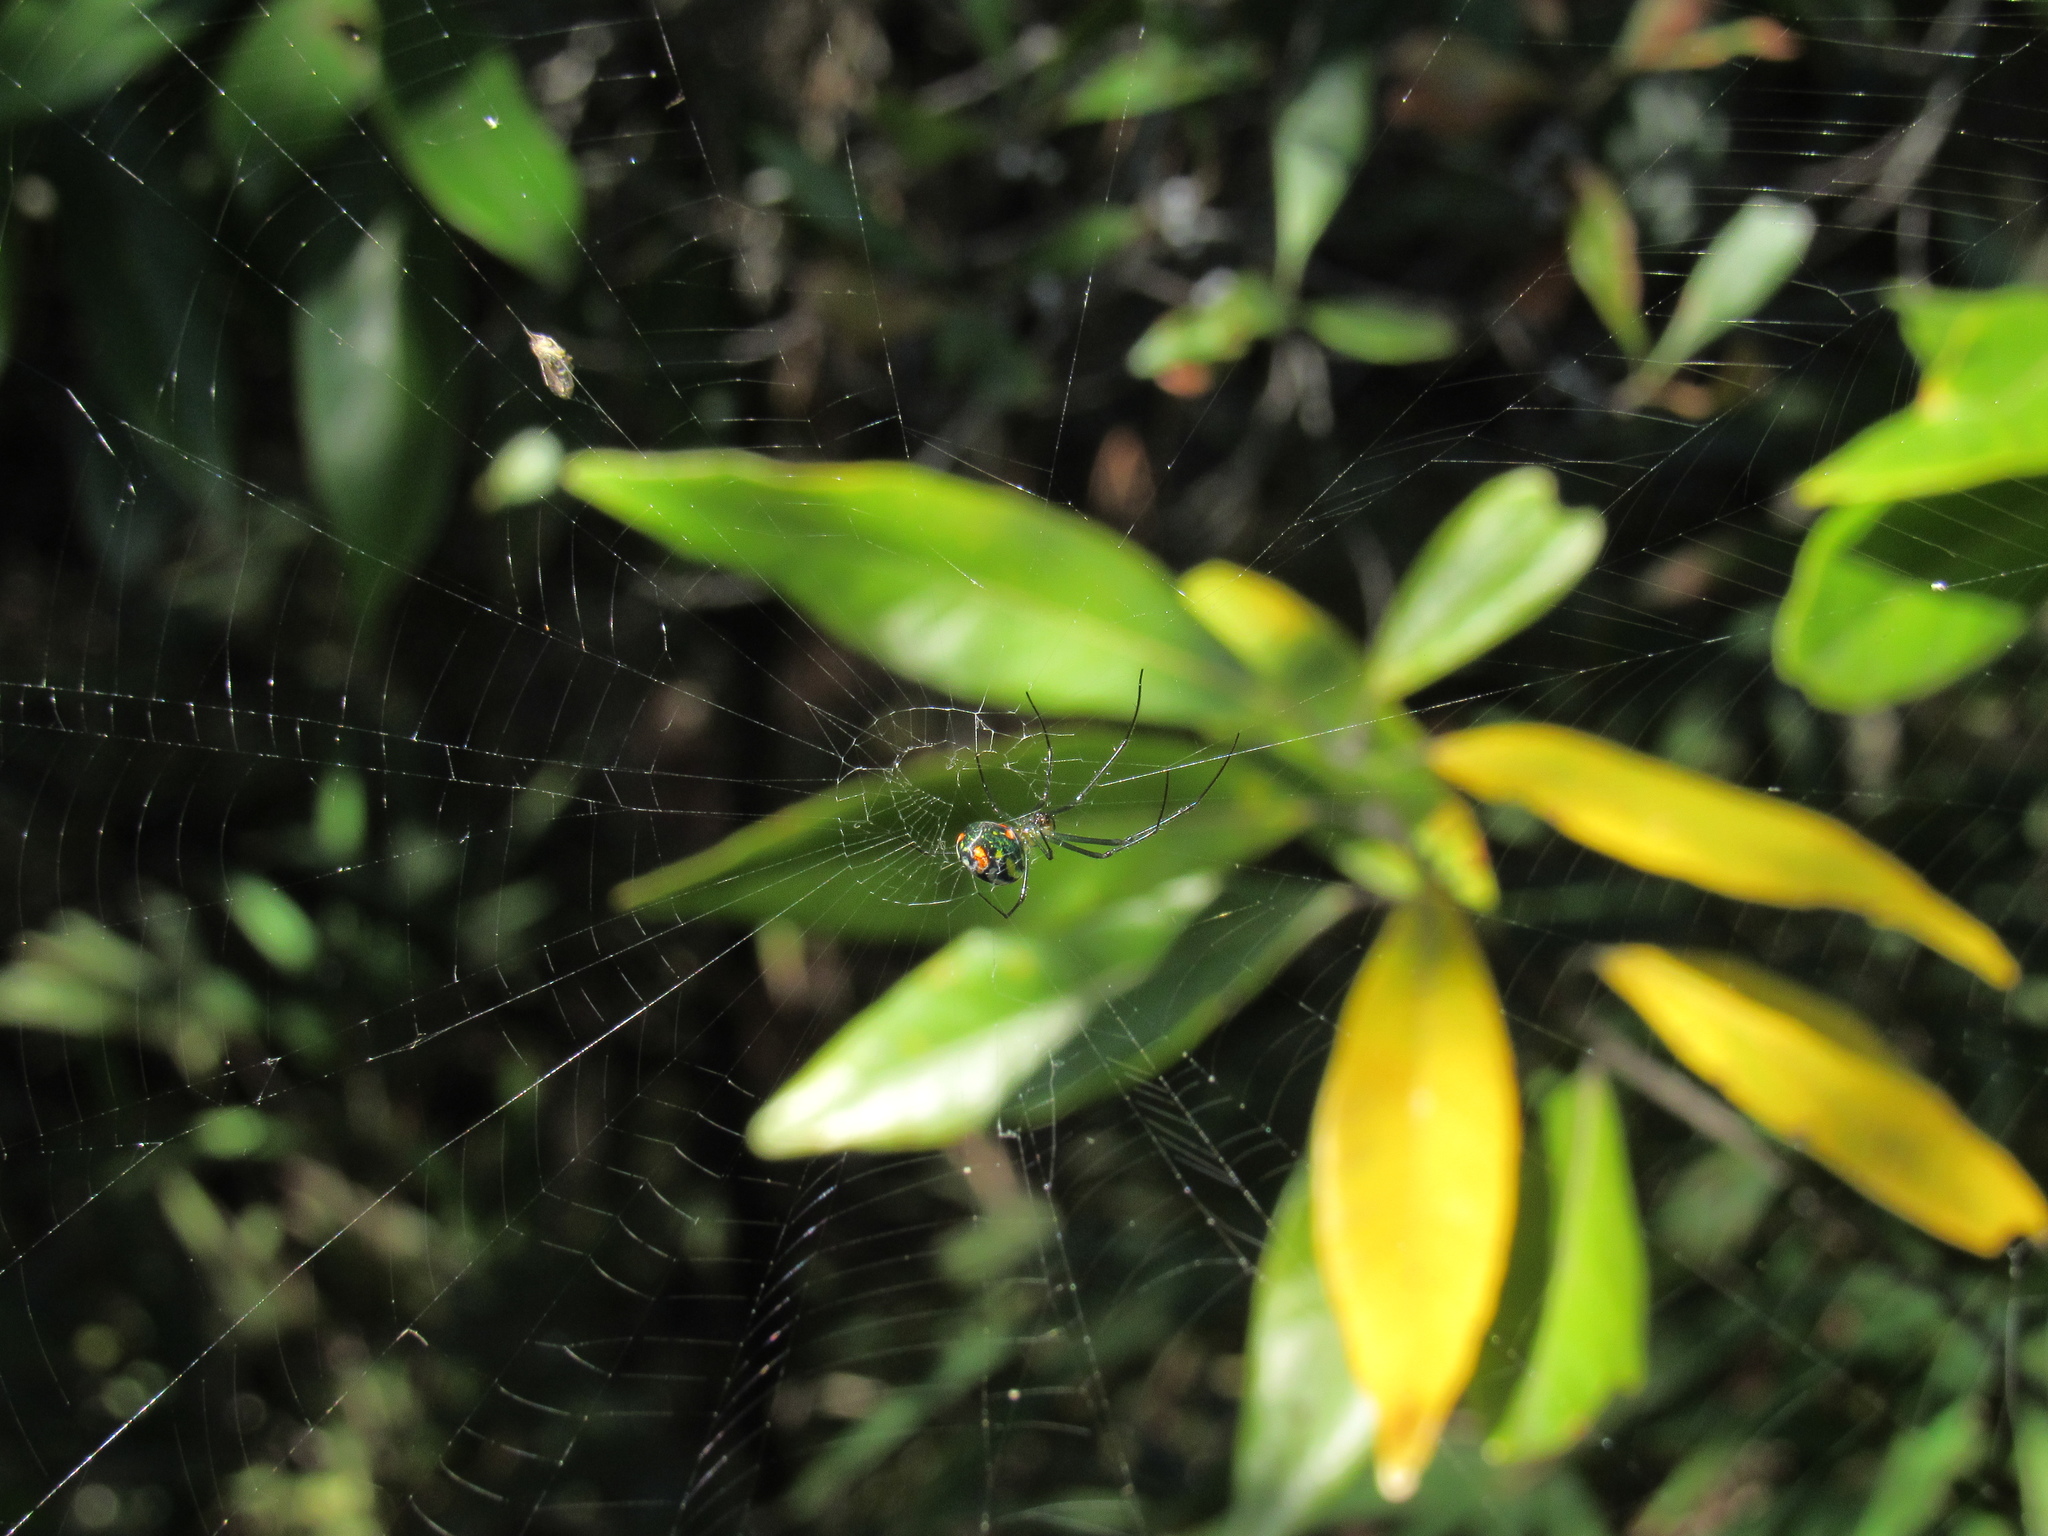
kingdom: Animalia
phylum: Arthropoda
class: Arachnida
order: Araneae
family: Tetragnathidae
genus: Leucauge
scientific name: Leucauge argyrobapta
